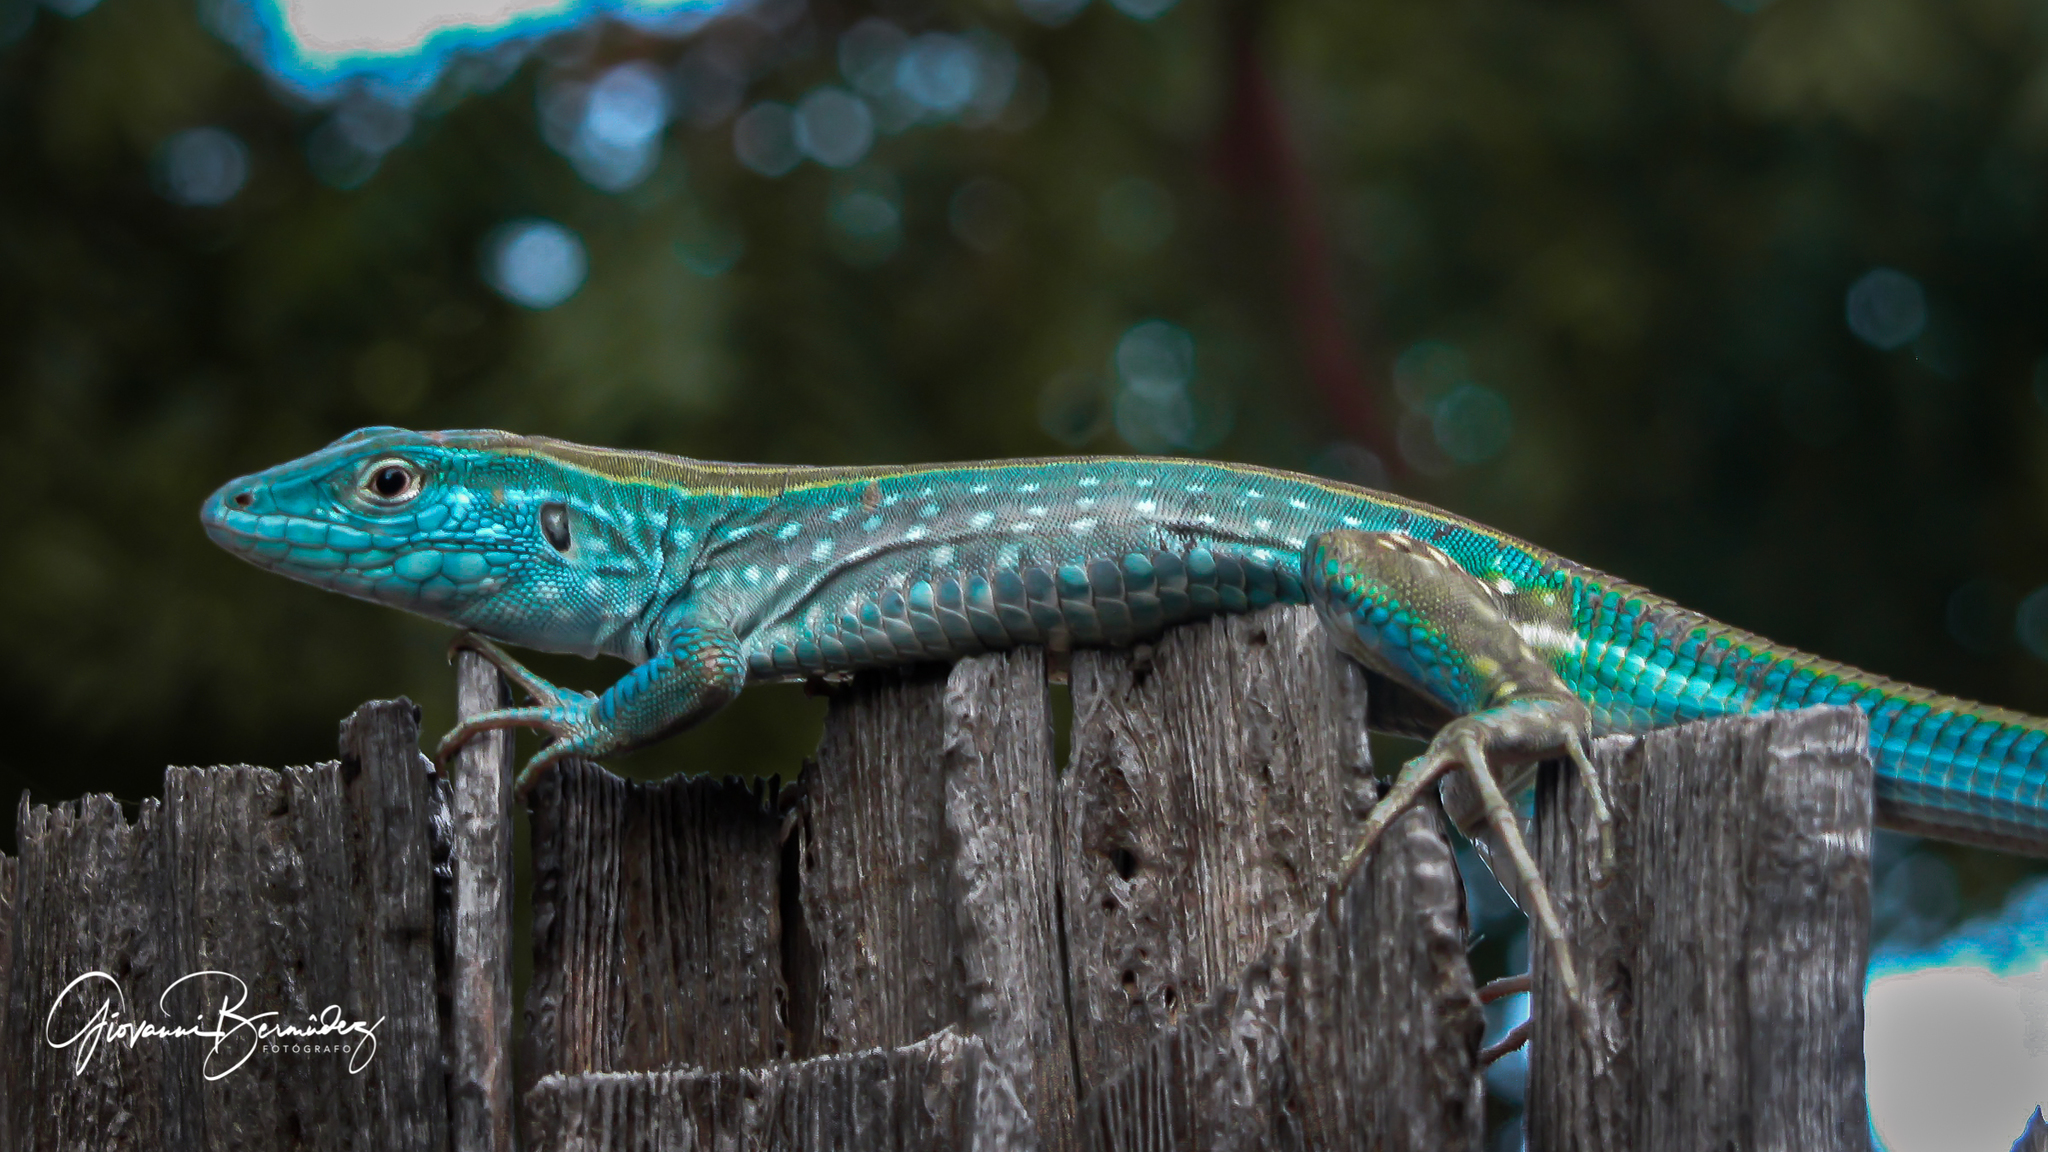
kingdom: Animalia
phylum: Chordata
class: Squamata
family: Teiidae
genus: Cnemidophorus
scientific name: Cnemidophorus splendidus
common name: Blue rainbow lizard
